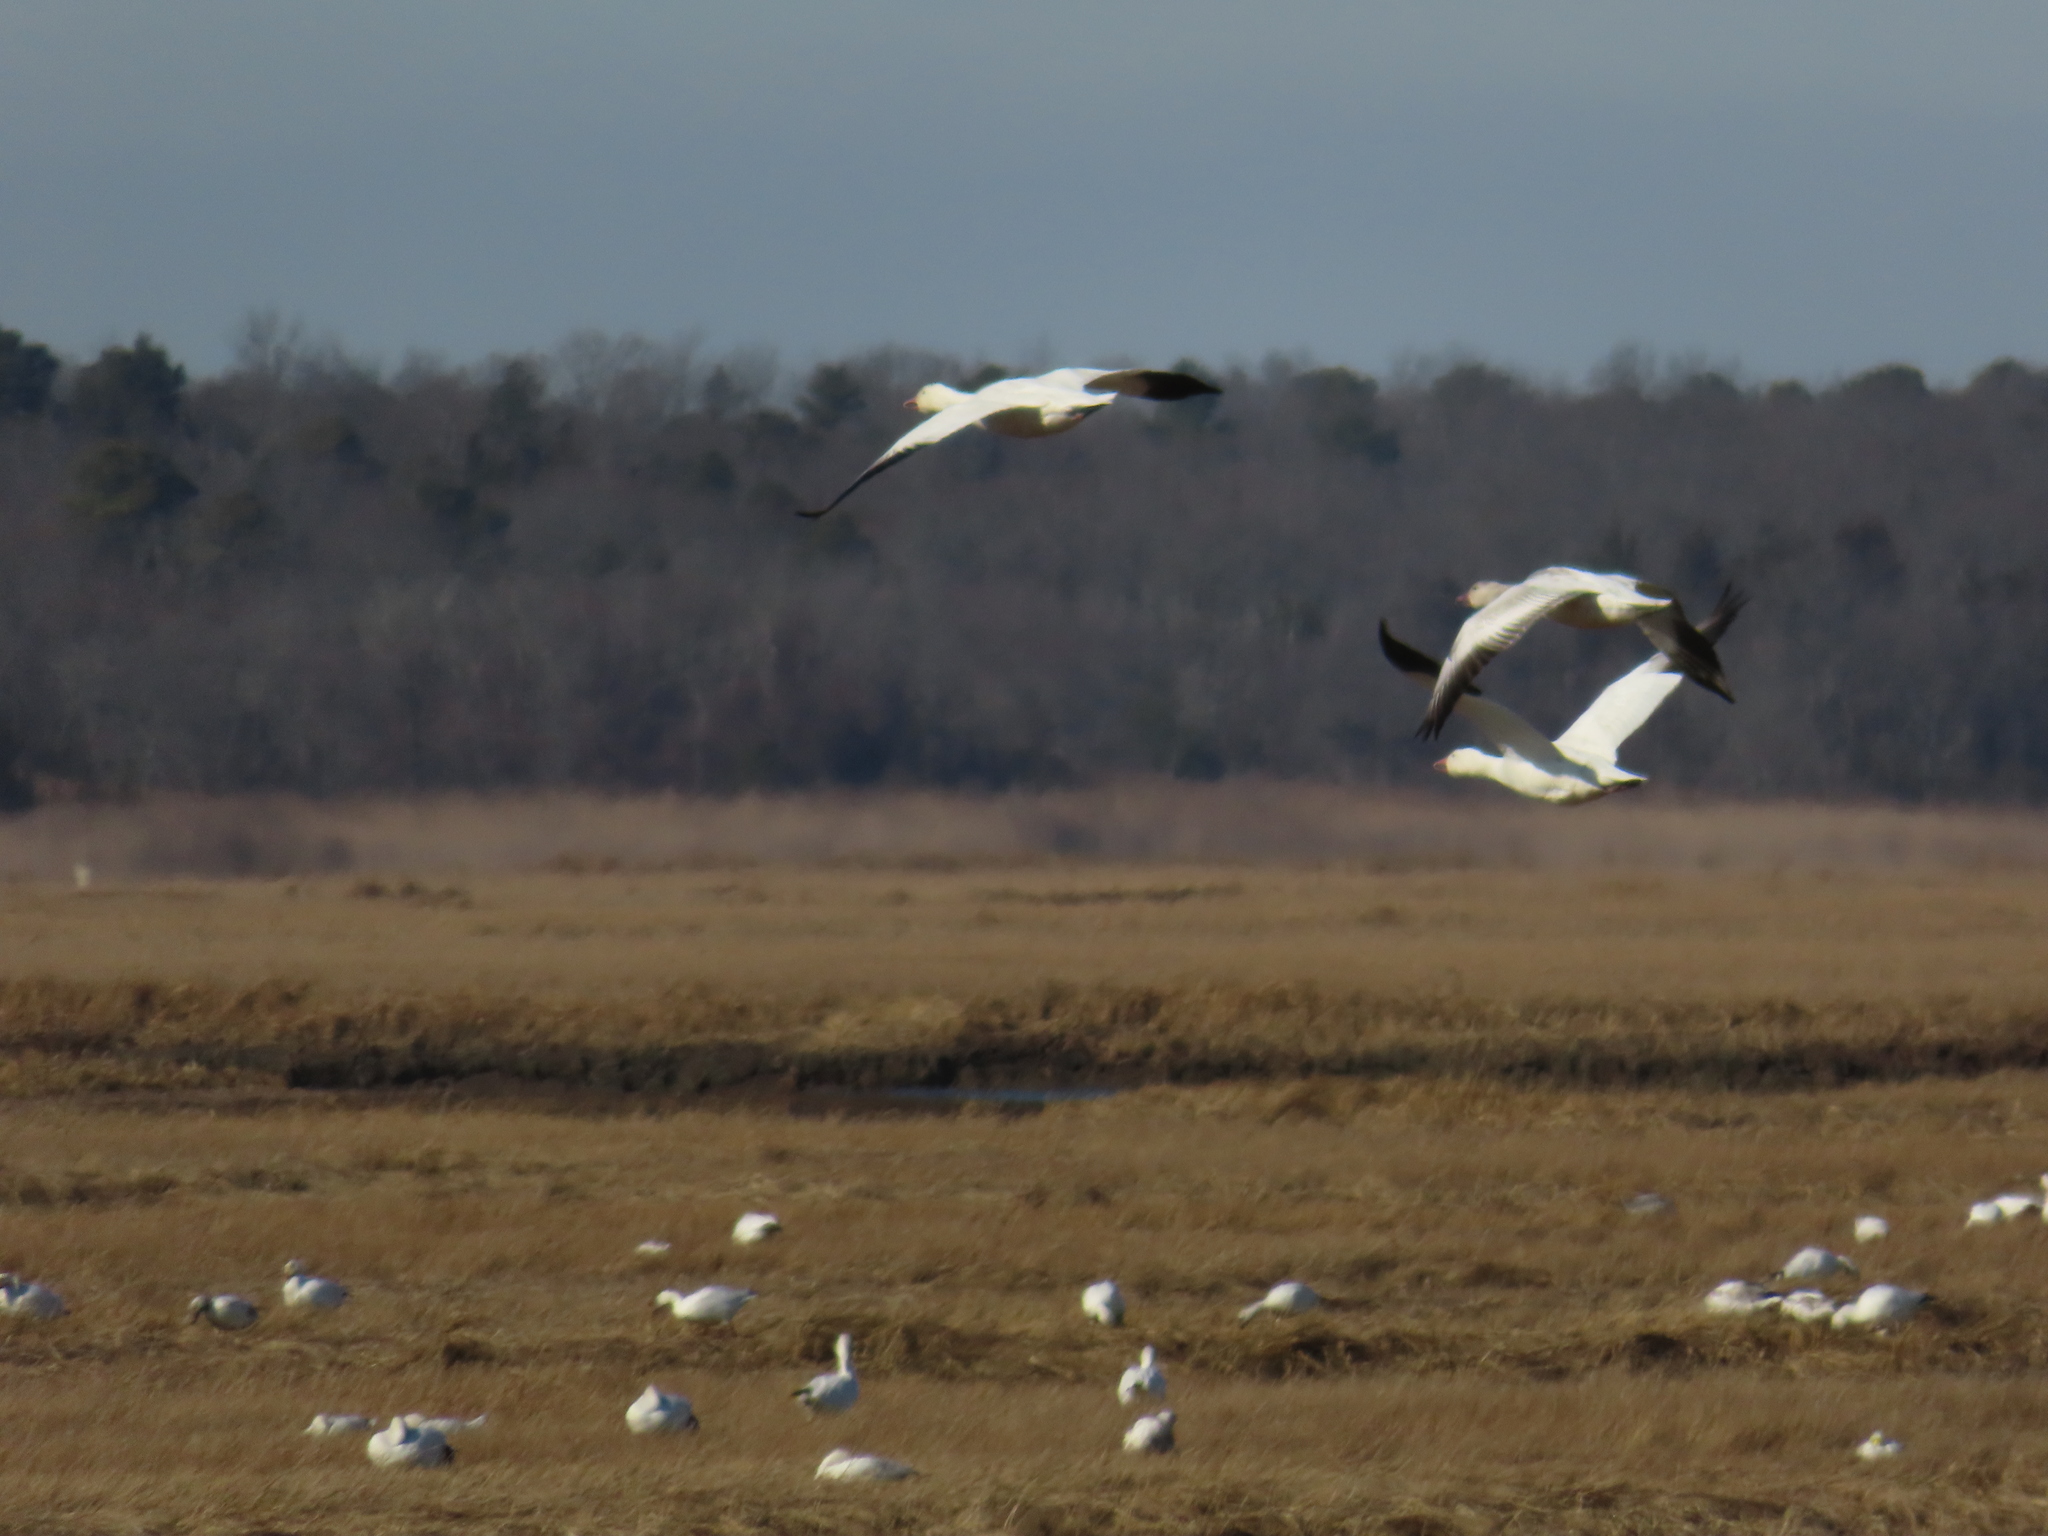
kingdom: Animalia
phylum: Chordata
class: Aves
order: Anseriformes
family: Anatidae
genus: Anser
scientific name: Anser caerulescens
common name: Snow goose
